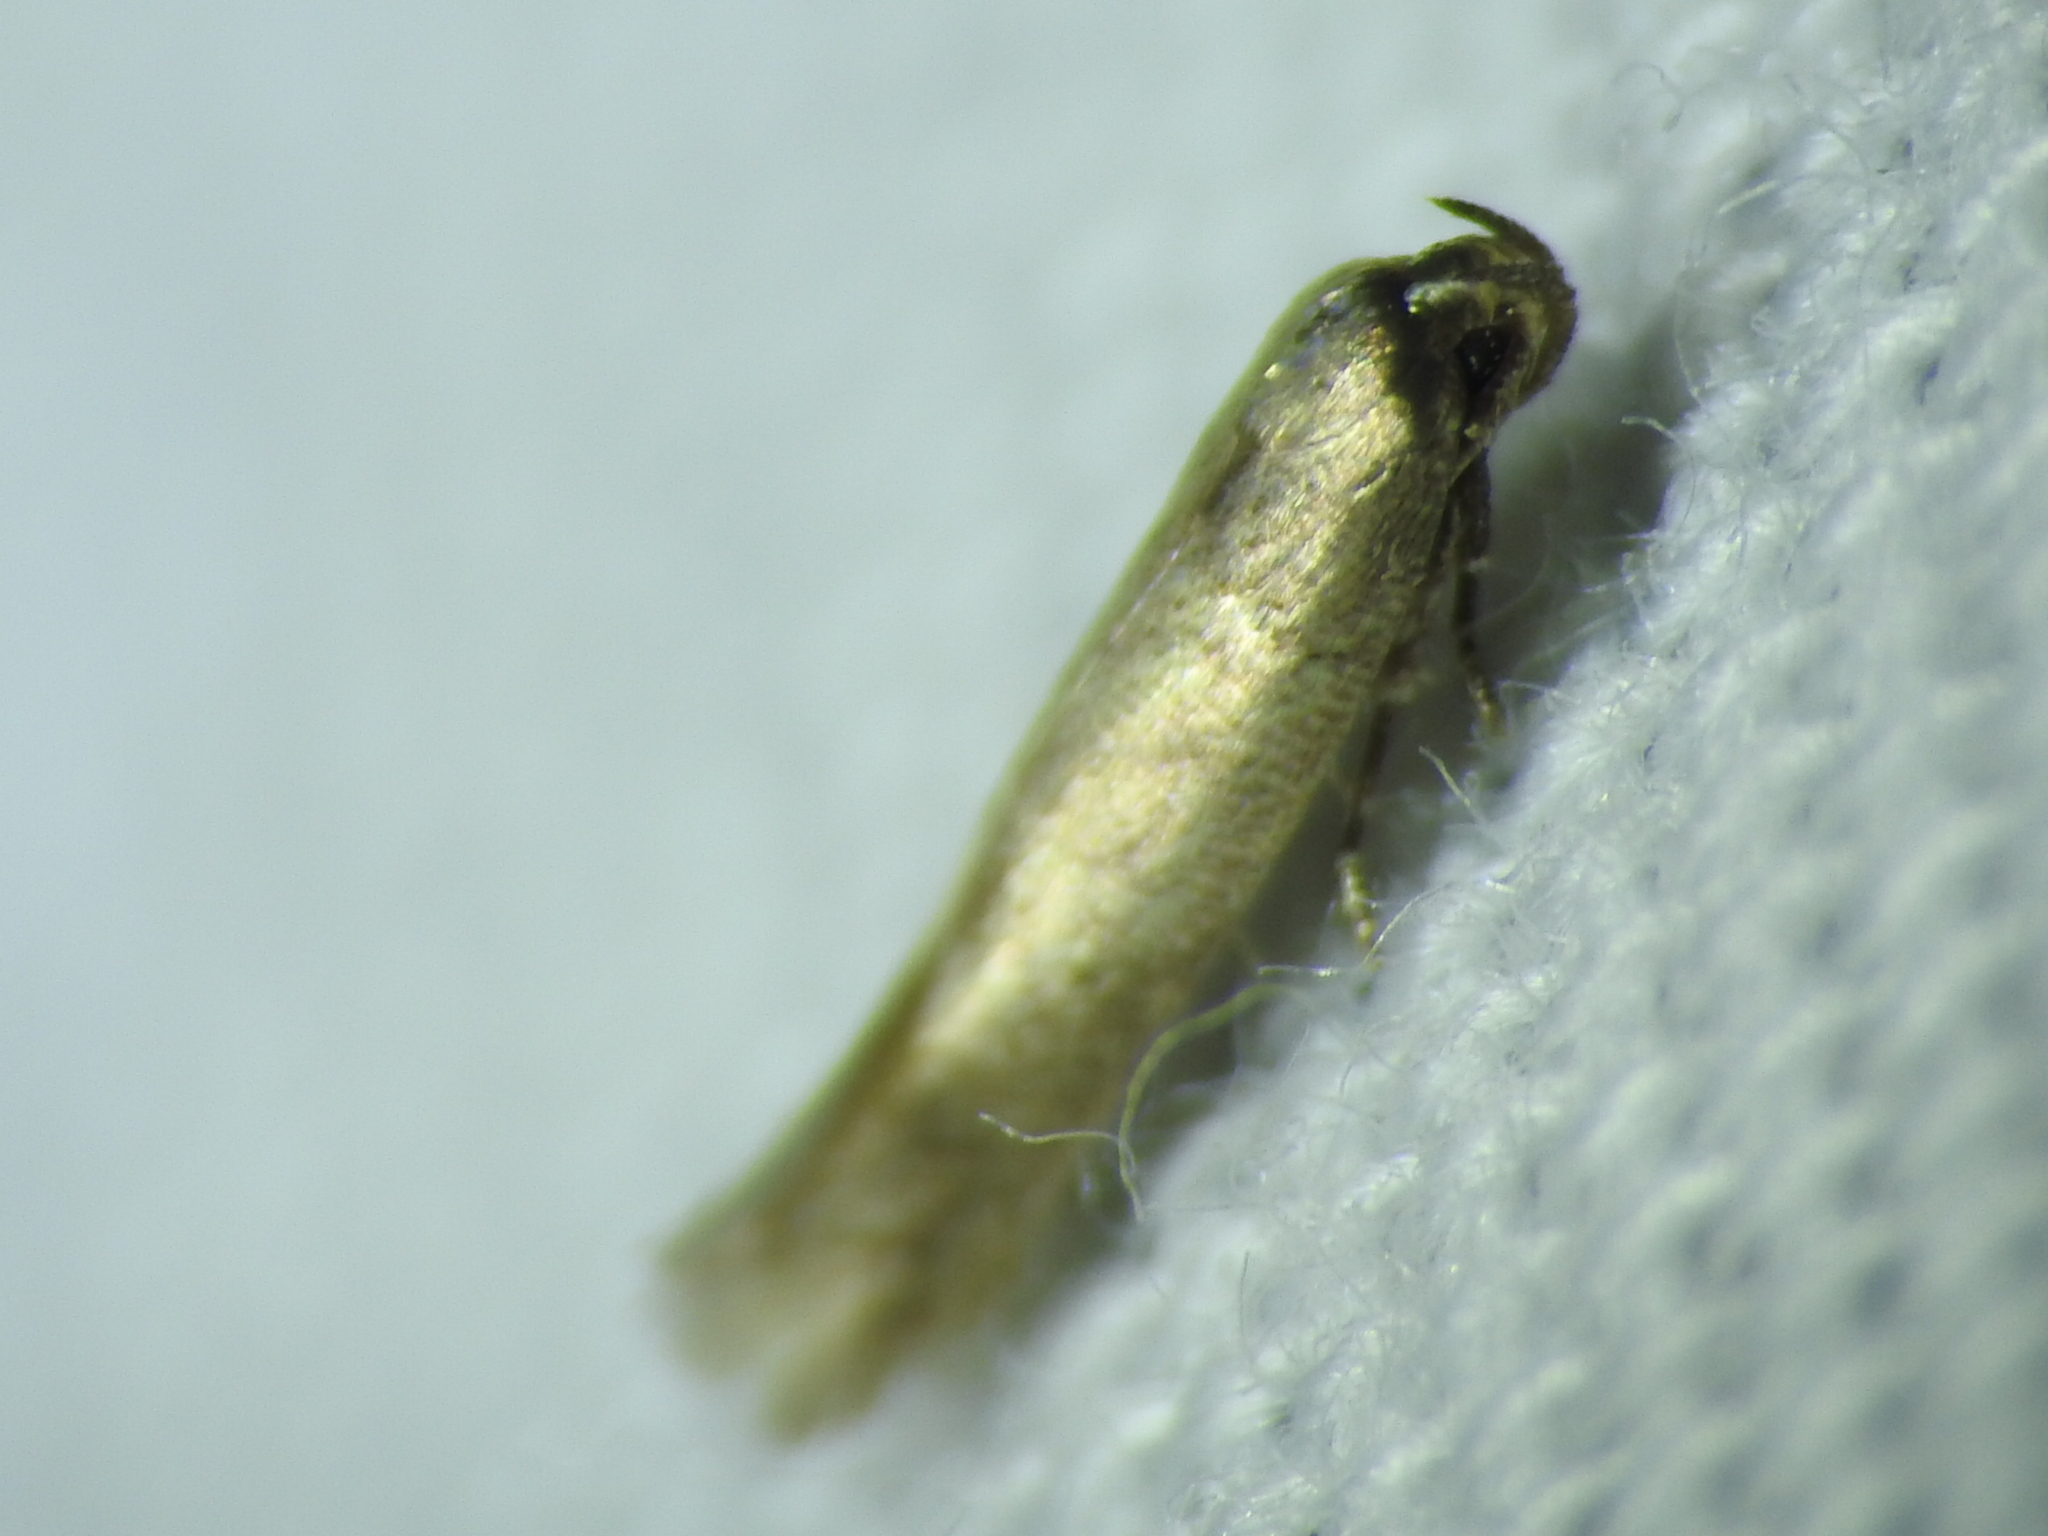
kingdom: Animalia
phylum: Arthropoda
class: Insecta
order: Lepidoptera
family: Meessiidae
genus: Homostinea
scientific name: Homostinea curviliniella
